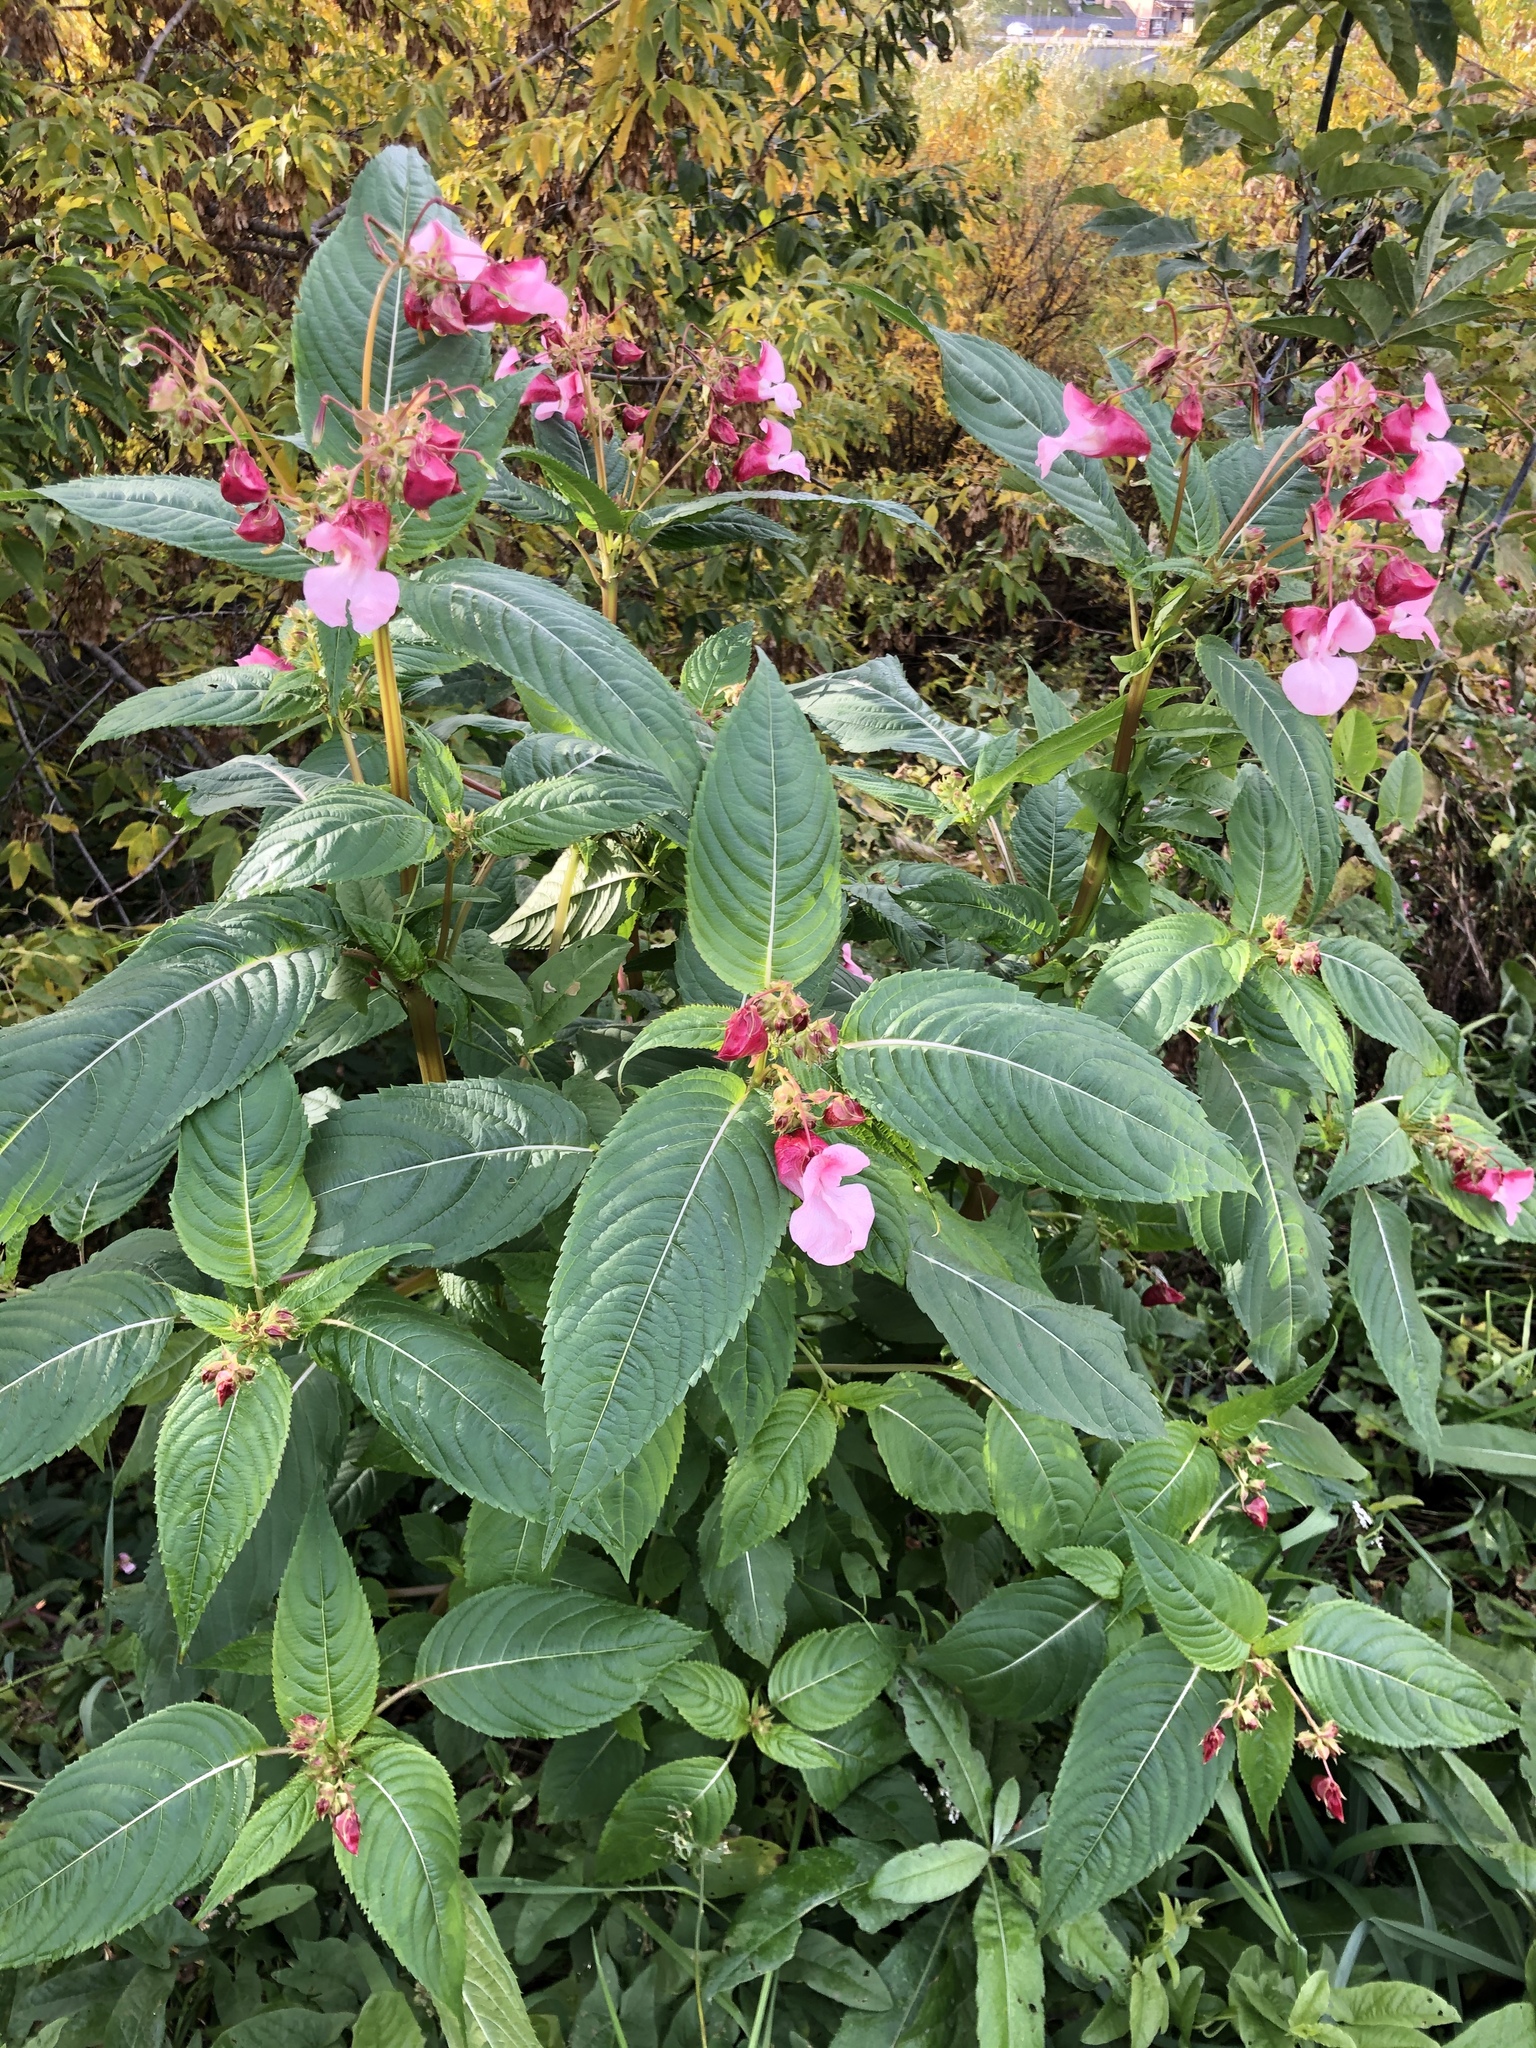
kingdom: Plantae
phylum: Tracheophyta
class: Magnoliopsida
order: Ericales
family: Balsaminaceae
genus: Impatiens
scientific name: Impatiens glandulifera
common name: Himalayan balsam
